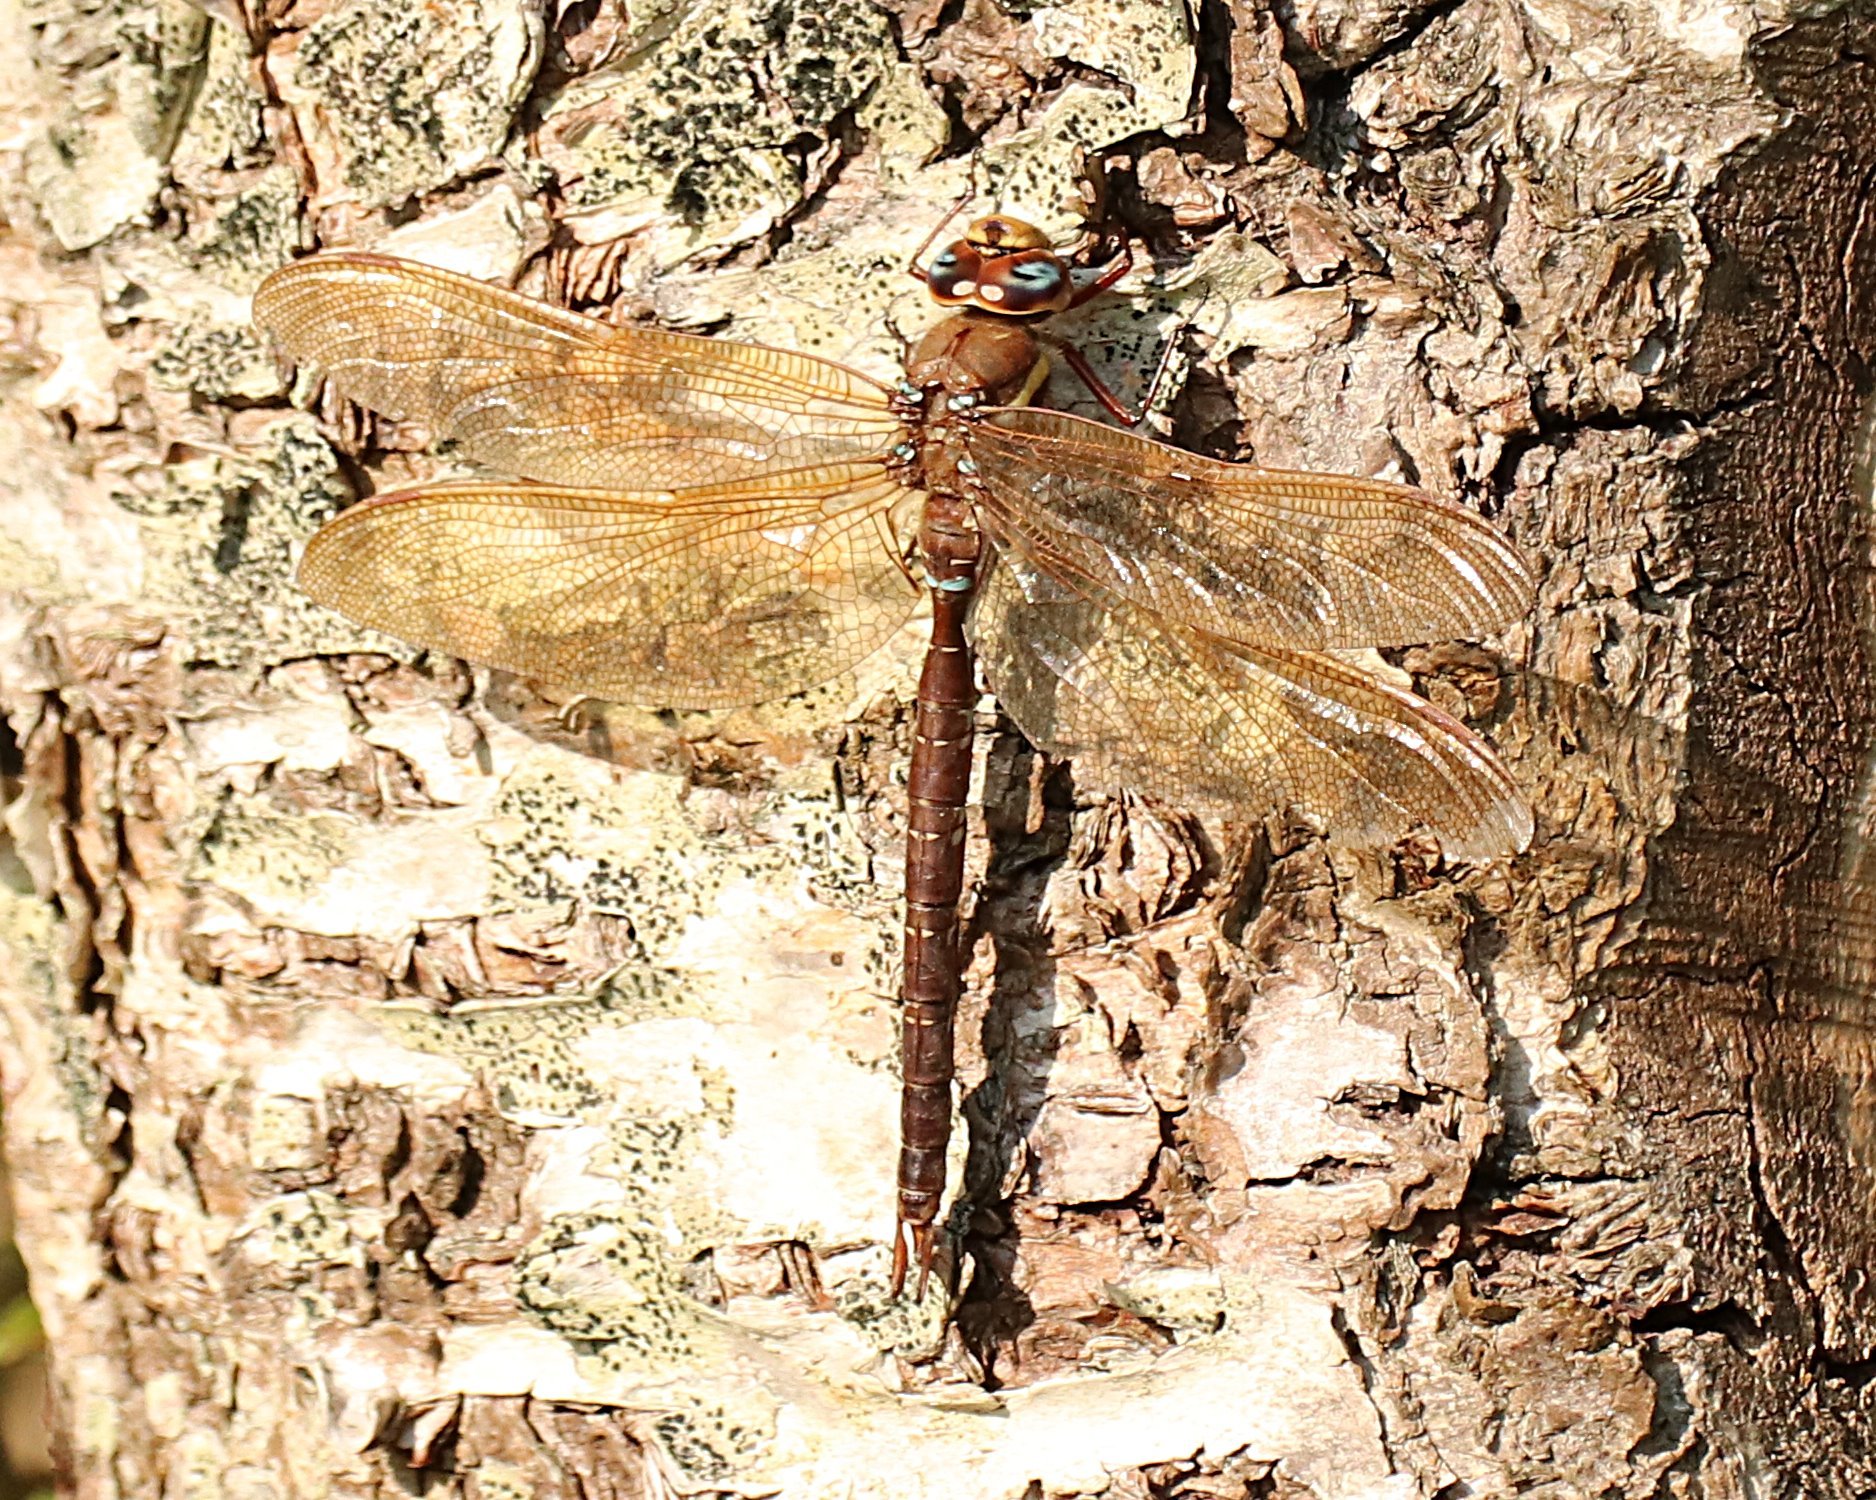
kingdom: Animalia
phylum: Arthropoda
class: Insecta
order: Odonata
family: Aeshnidae
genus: Aeshna
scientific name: Aeshna grandis
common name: Brown hawker
